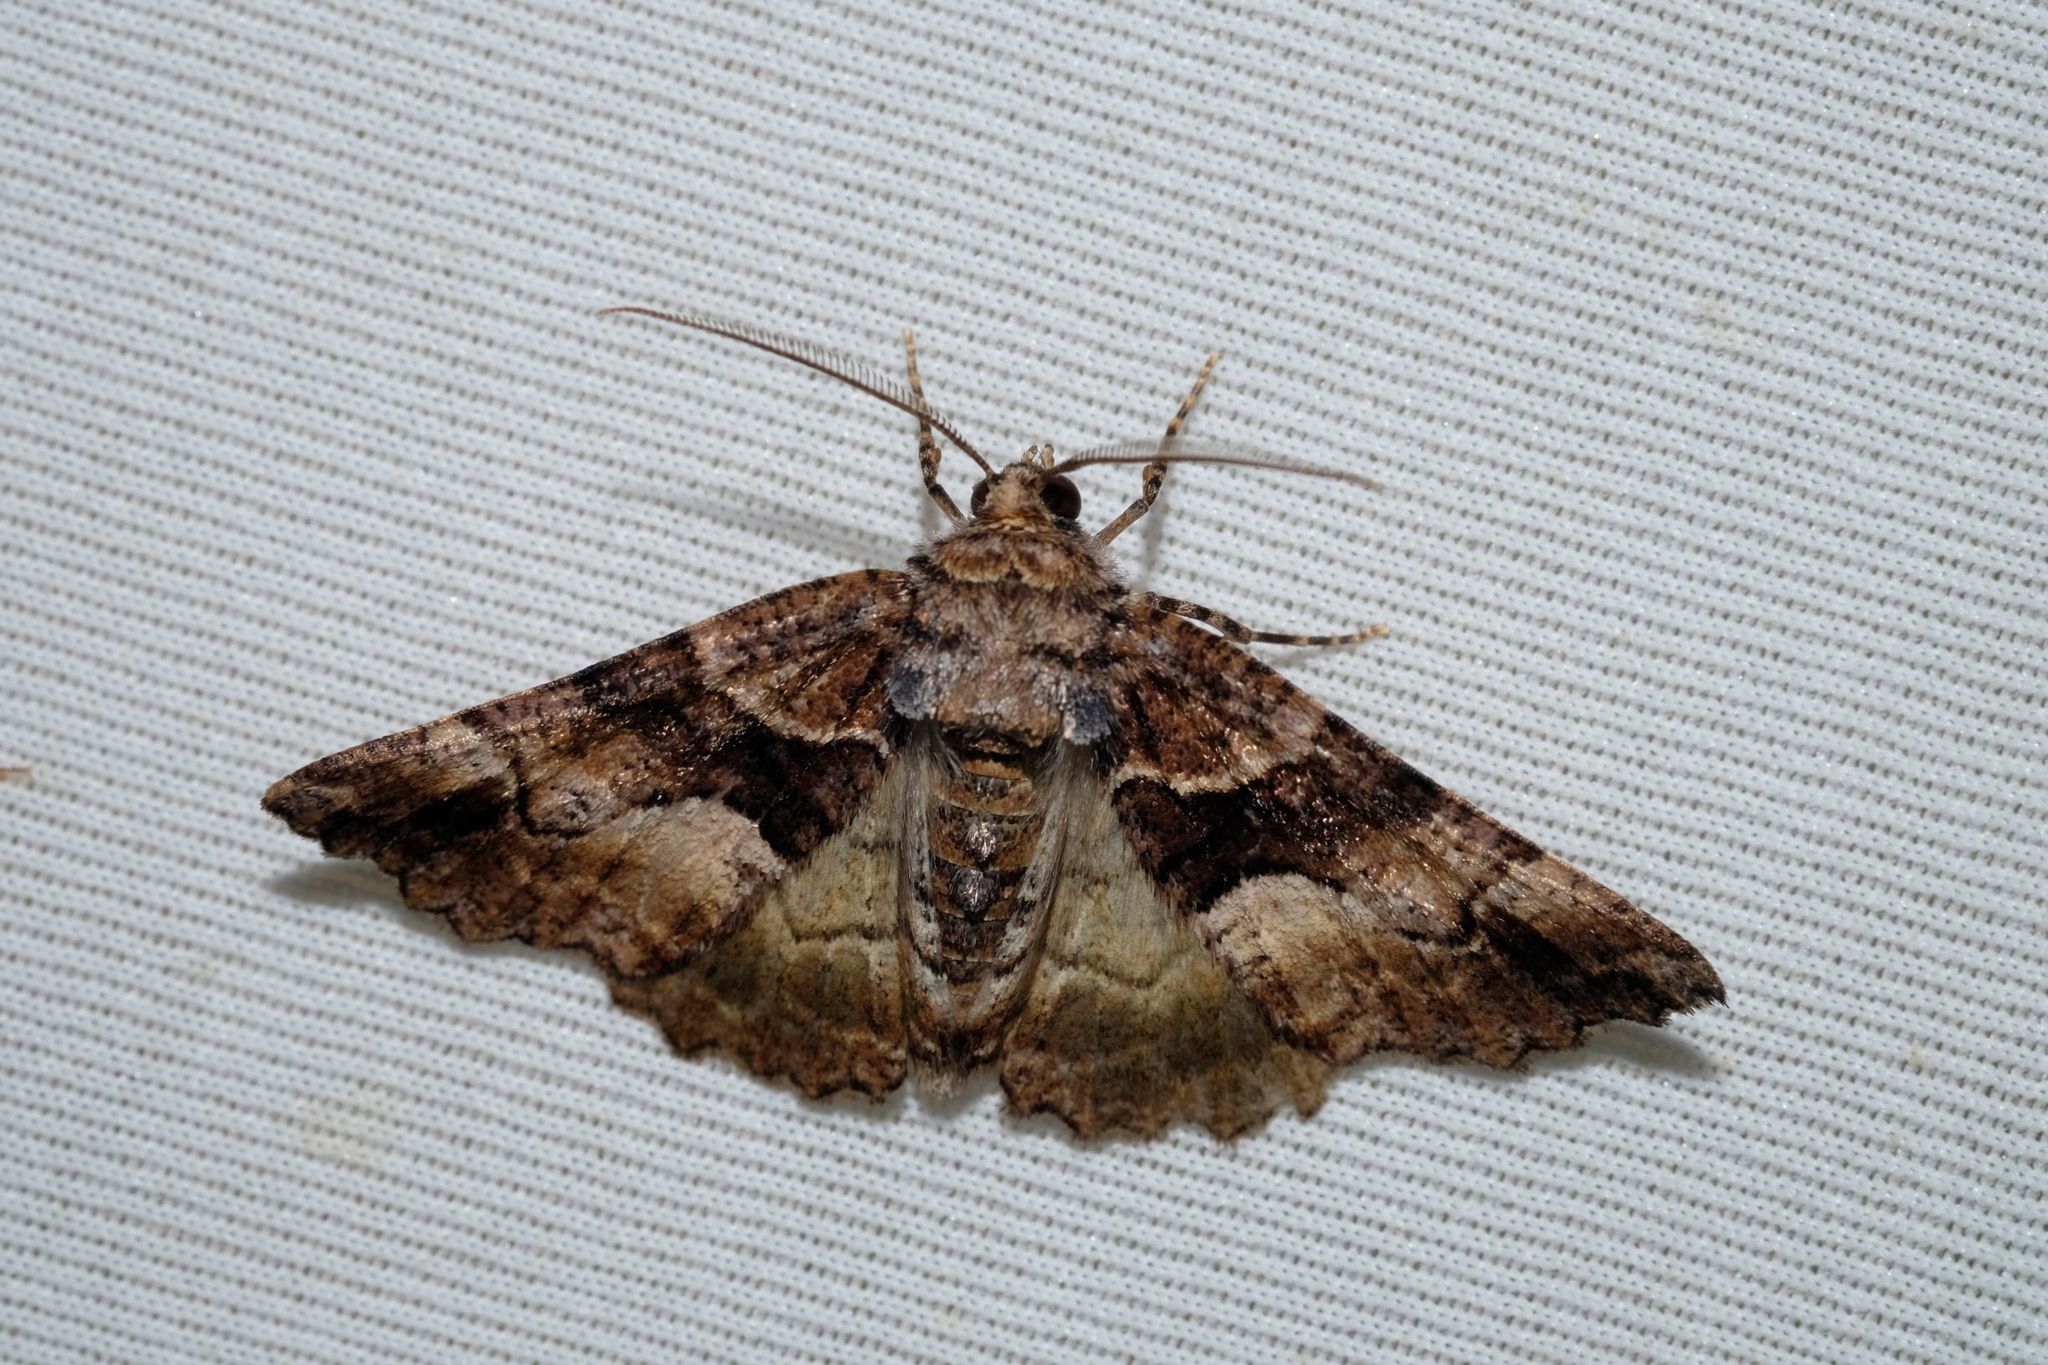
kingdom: Animalia
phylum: Arthropoda
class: Insecta
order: Lepidoptera
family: Geometridae
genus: Gastrina
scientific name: Gastrina cristaria
